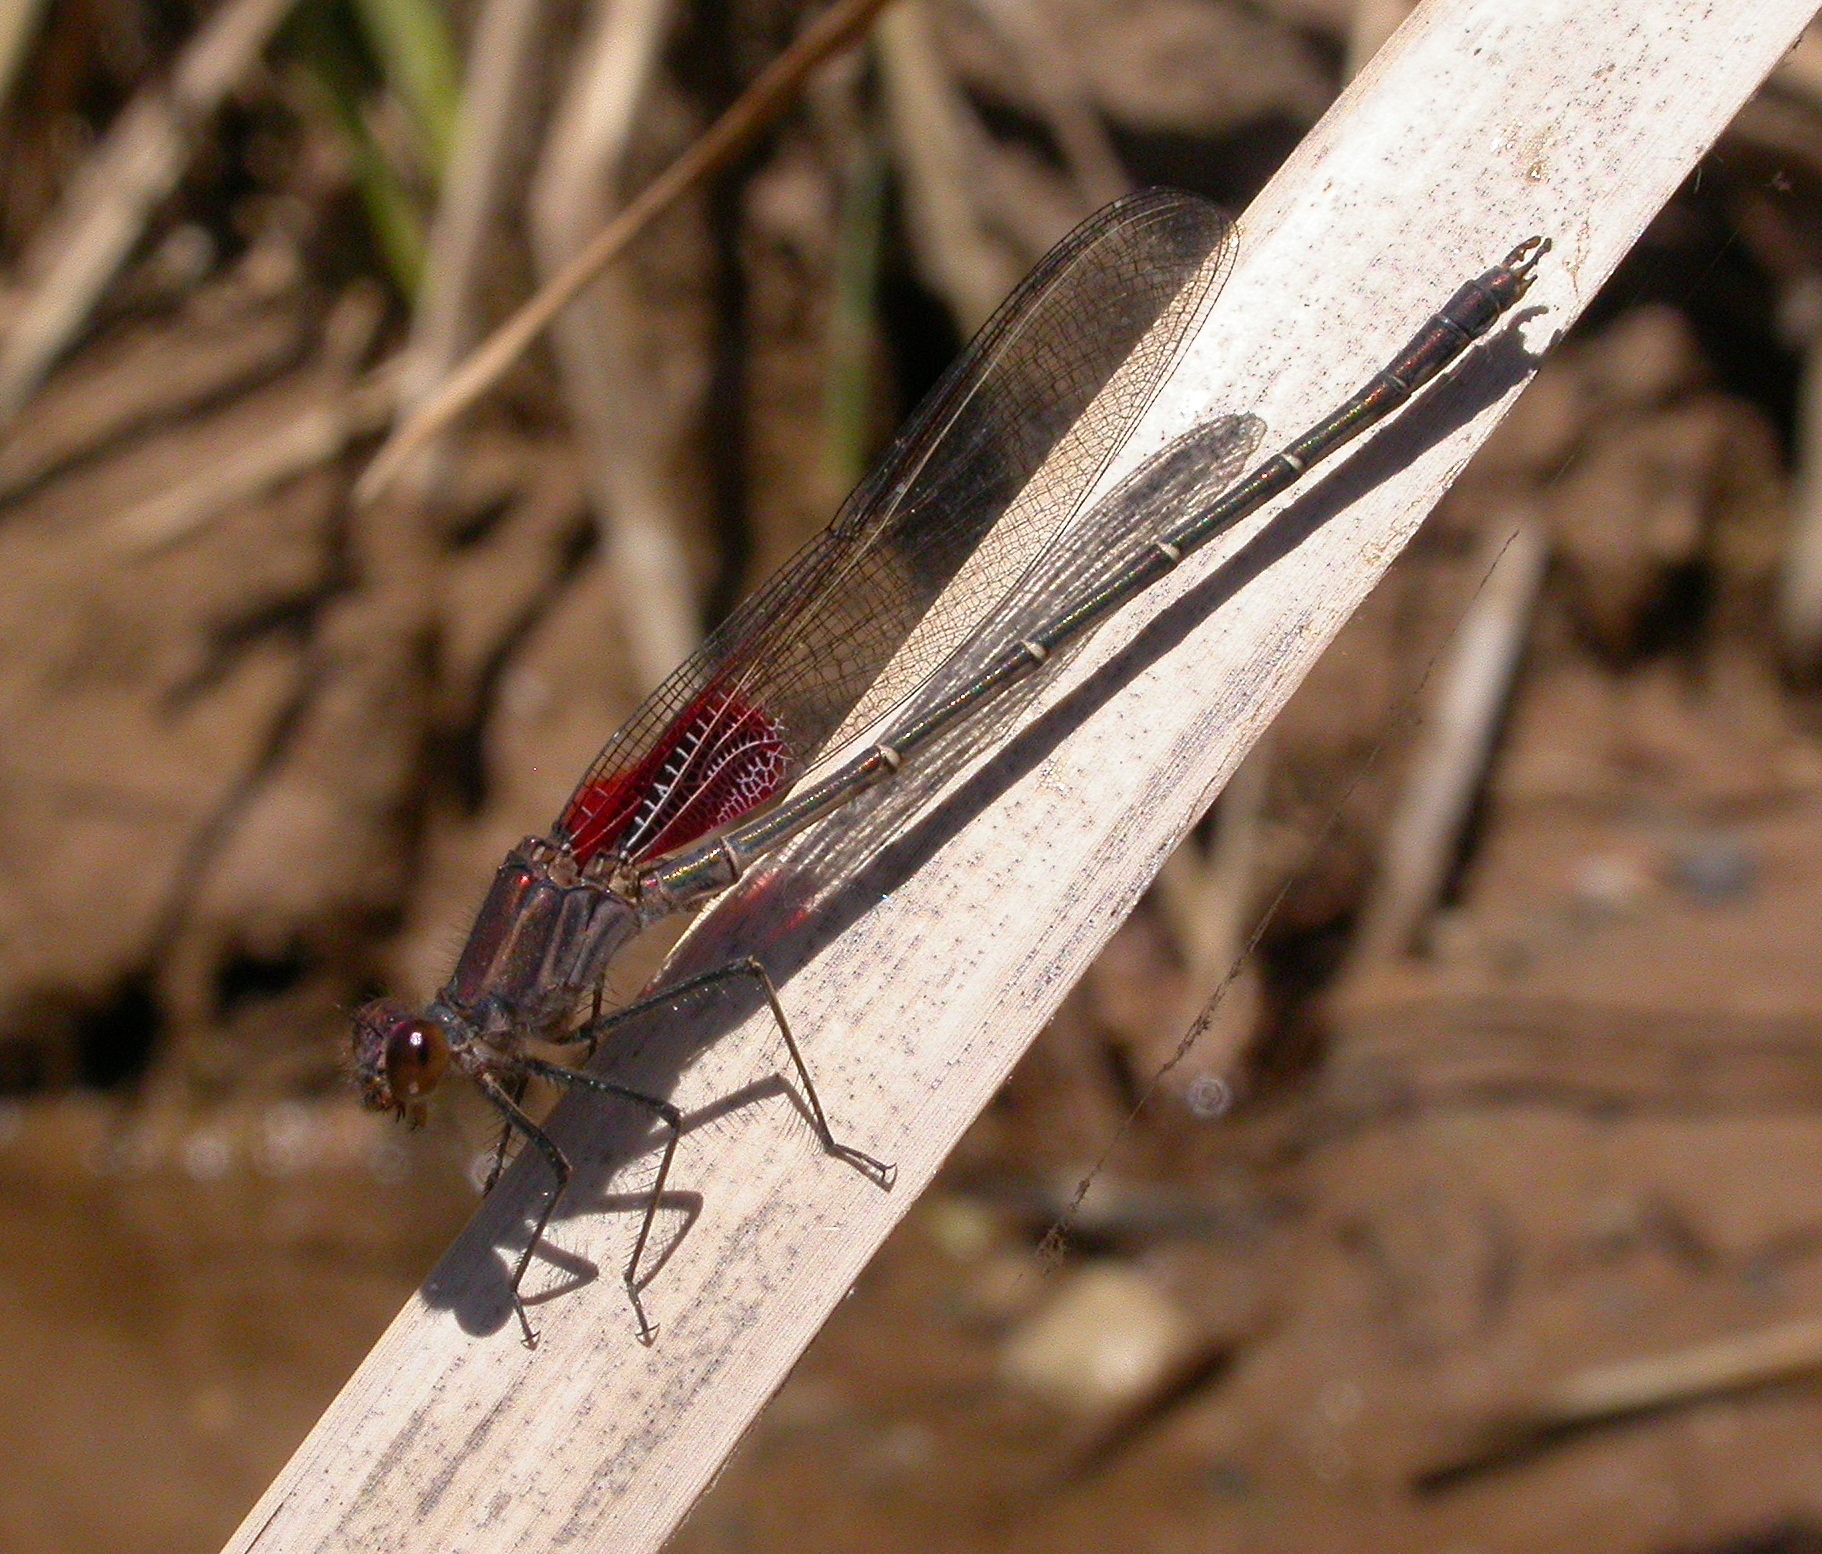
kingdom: Animalia
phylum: Arthropoda
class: Insecta
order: Odonata
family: Calopterygidae
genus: Hetaerina
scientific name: Hetaerina americana
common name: American rubyspot
